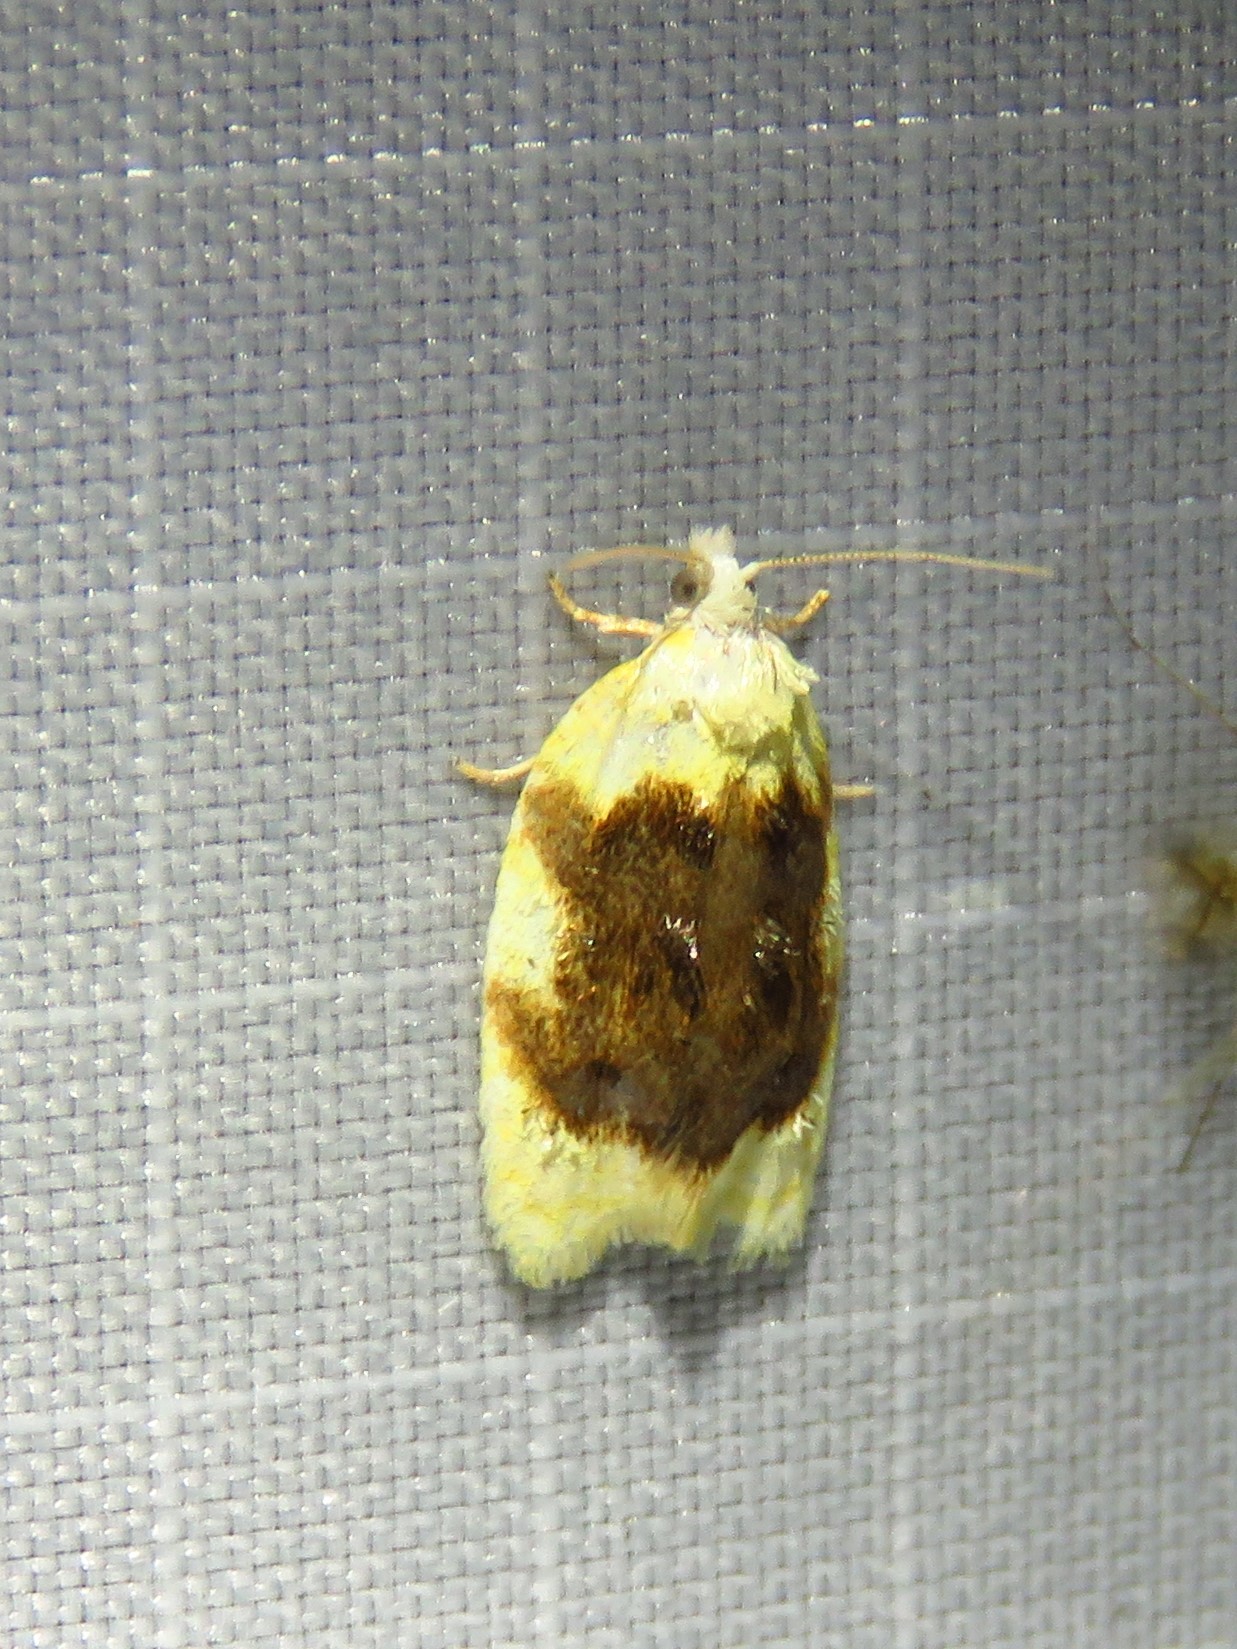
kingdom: Animalia
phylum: Arthropoda
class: Insecta
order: Lepidoptera
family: Tortricidae
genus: Acleris
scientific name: Acleris semipurpurana
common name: Oak leaftier moth
